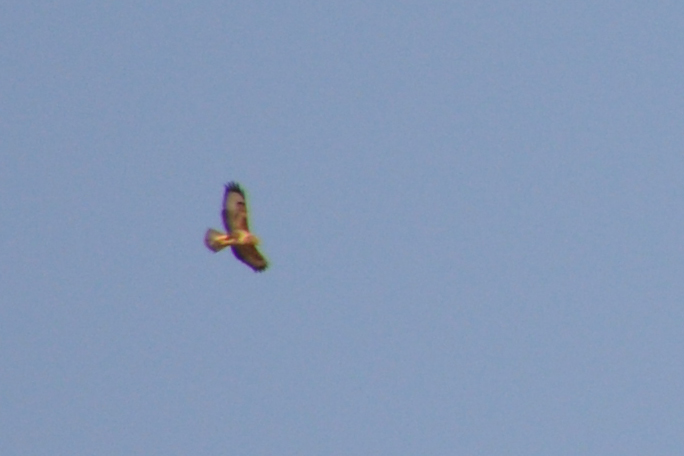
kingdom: Animalia
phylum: Chordata
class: Aves
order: Accipitriformes
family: Accipitridae
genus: Buteo
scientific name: Buteo rufinus
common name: Long-legged buzzard
